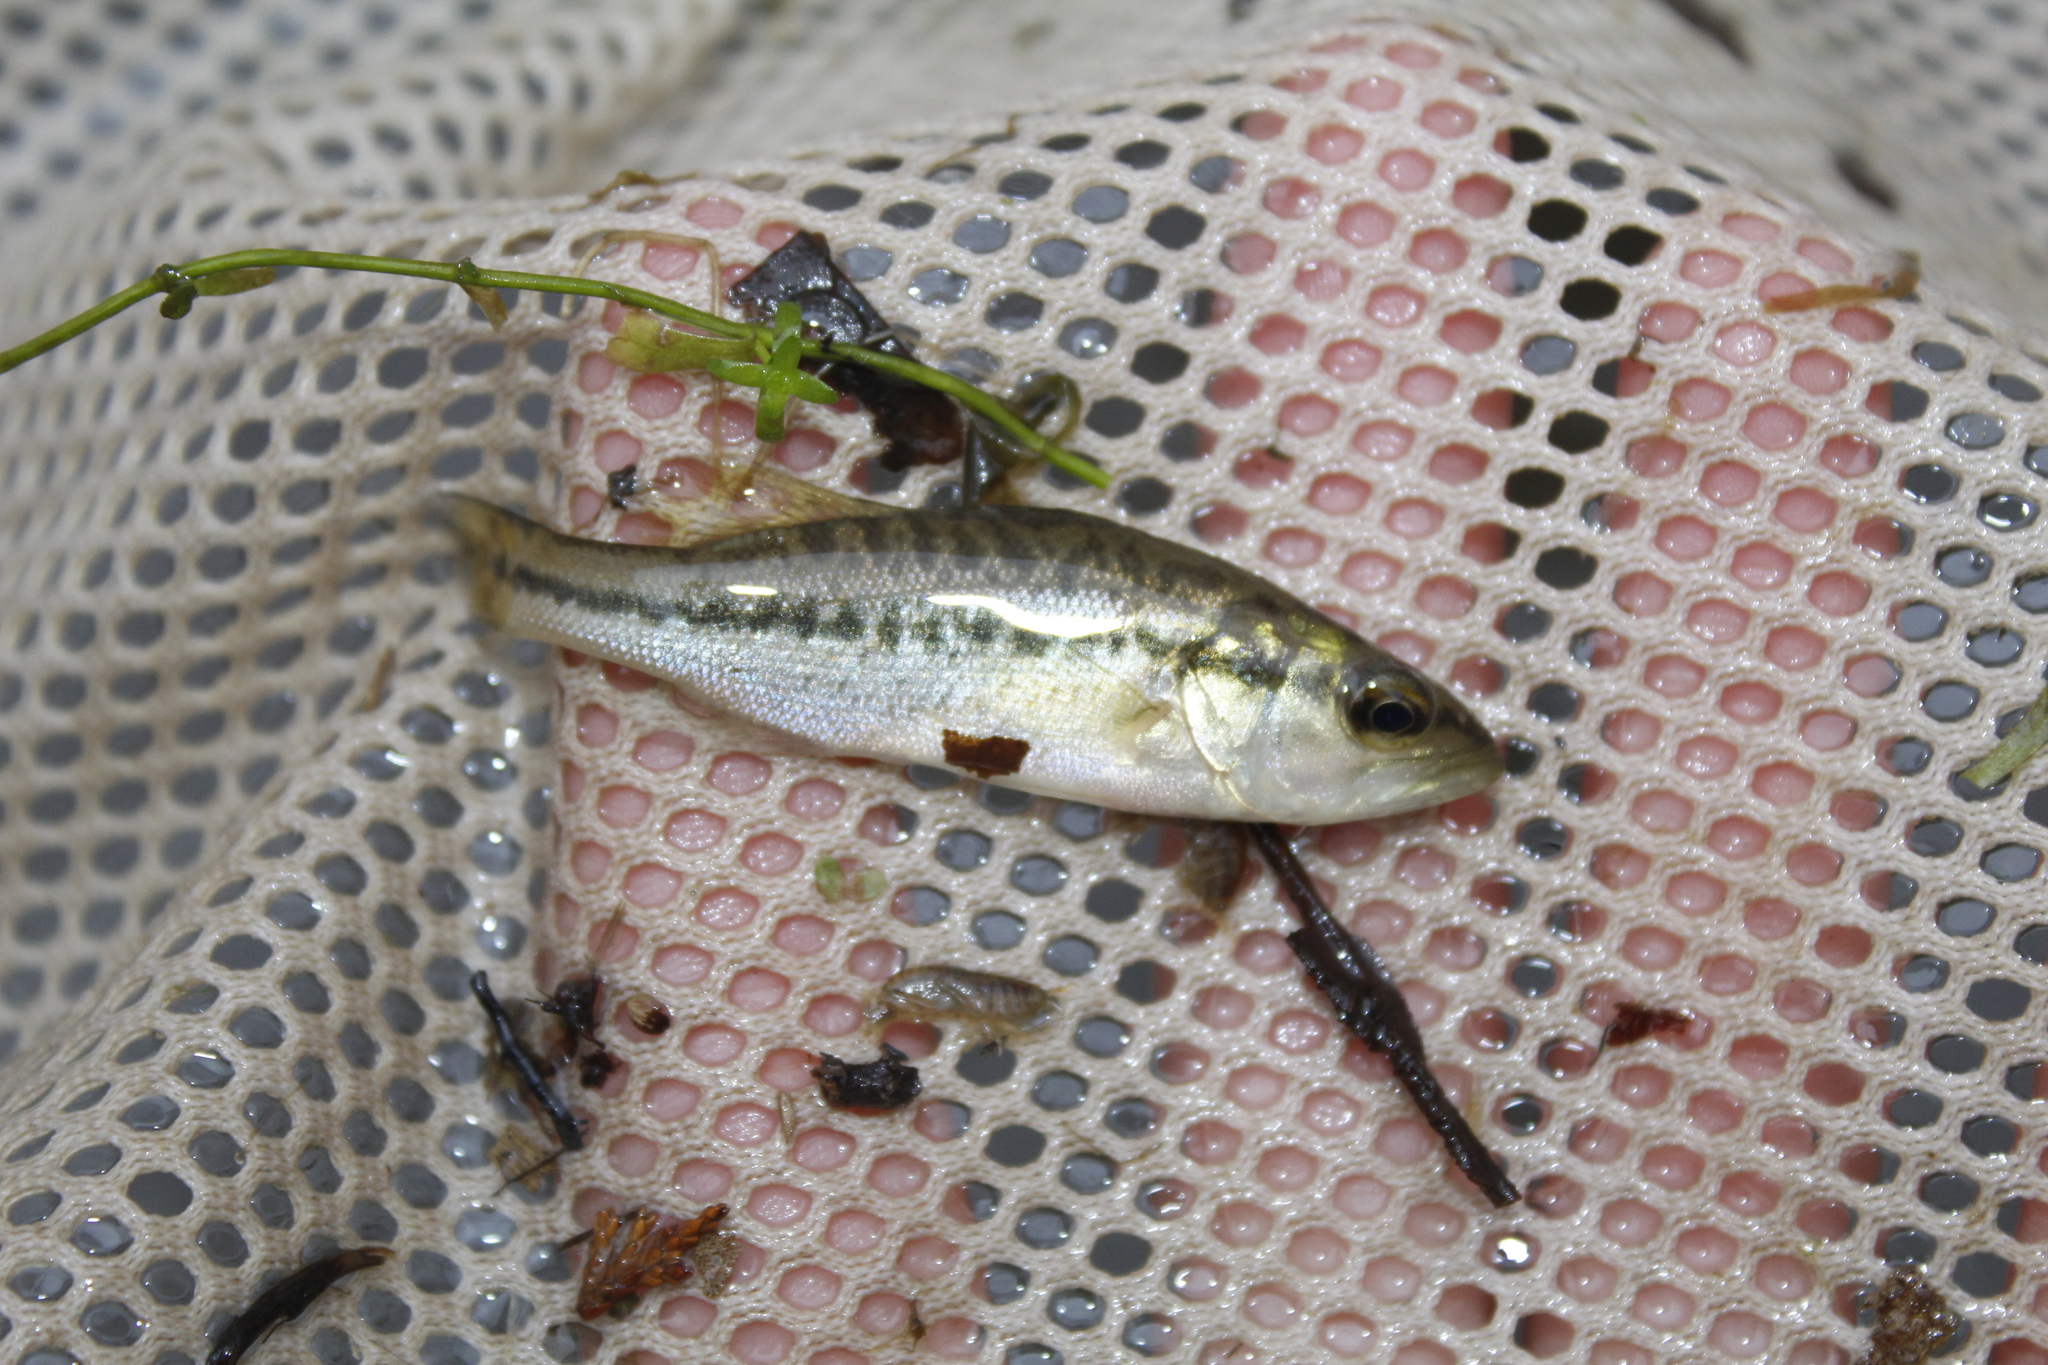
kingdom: Animalia
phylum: Chordata
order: Perciformes
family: Centrarchidae
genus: Micropterus
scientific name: Micropterus
